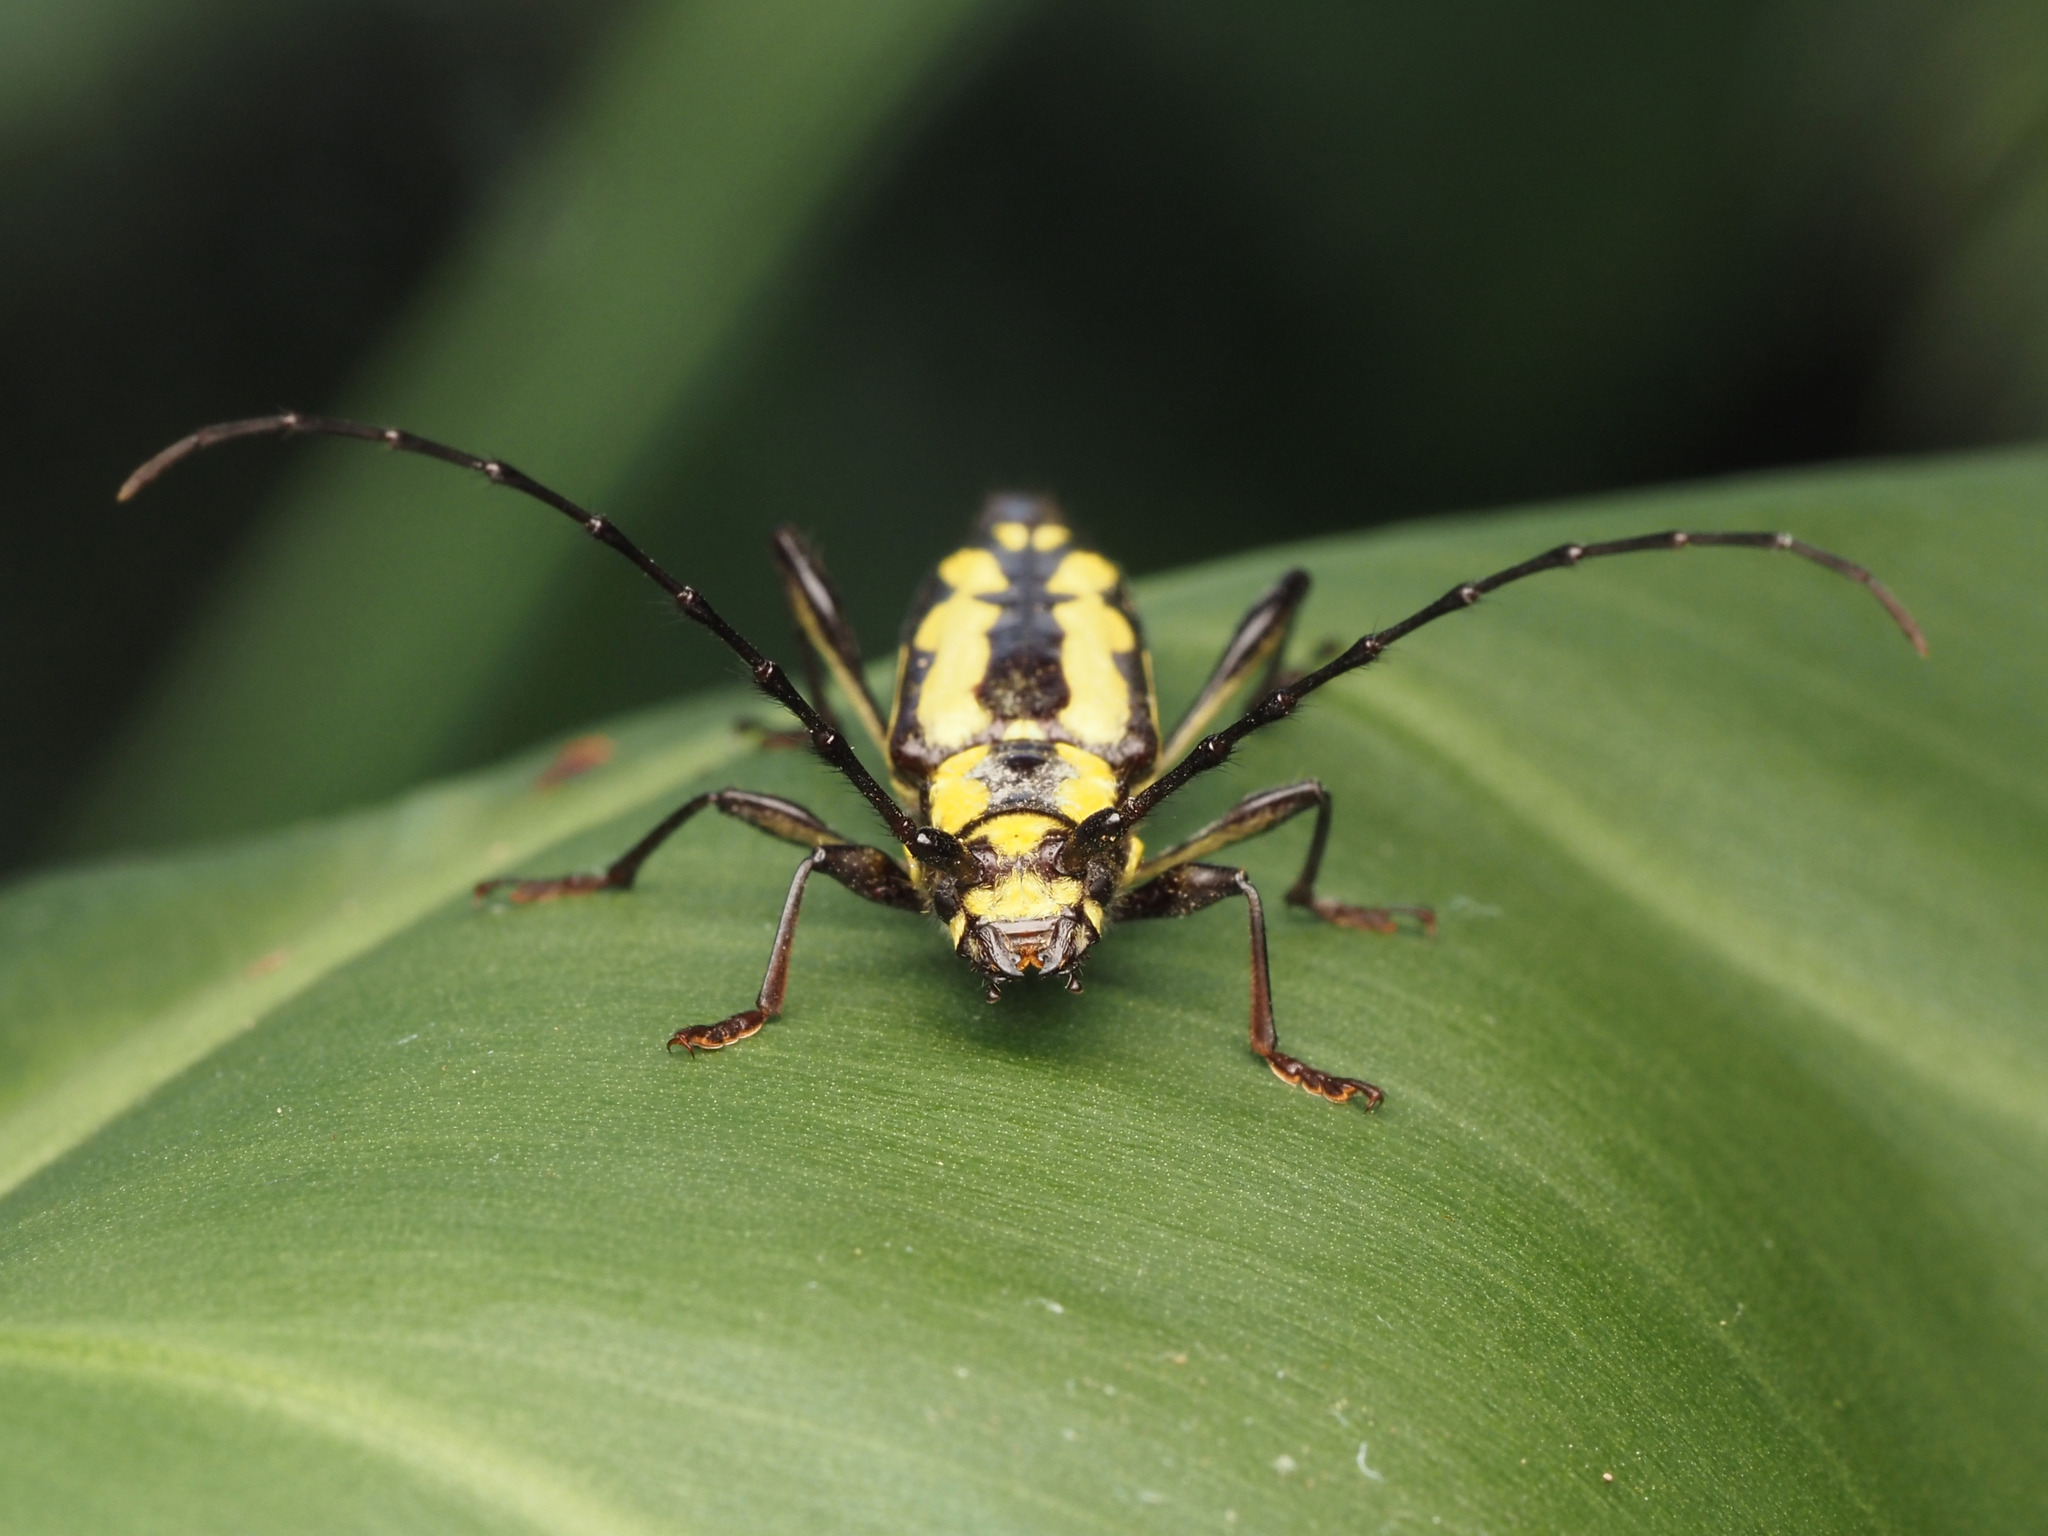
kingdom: Animalia
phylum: Arthropoda
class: Insecta
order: Coleoptera
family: Cerambycidae
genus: Ornithia
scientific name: Ornithia mexicana
